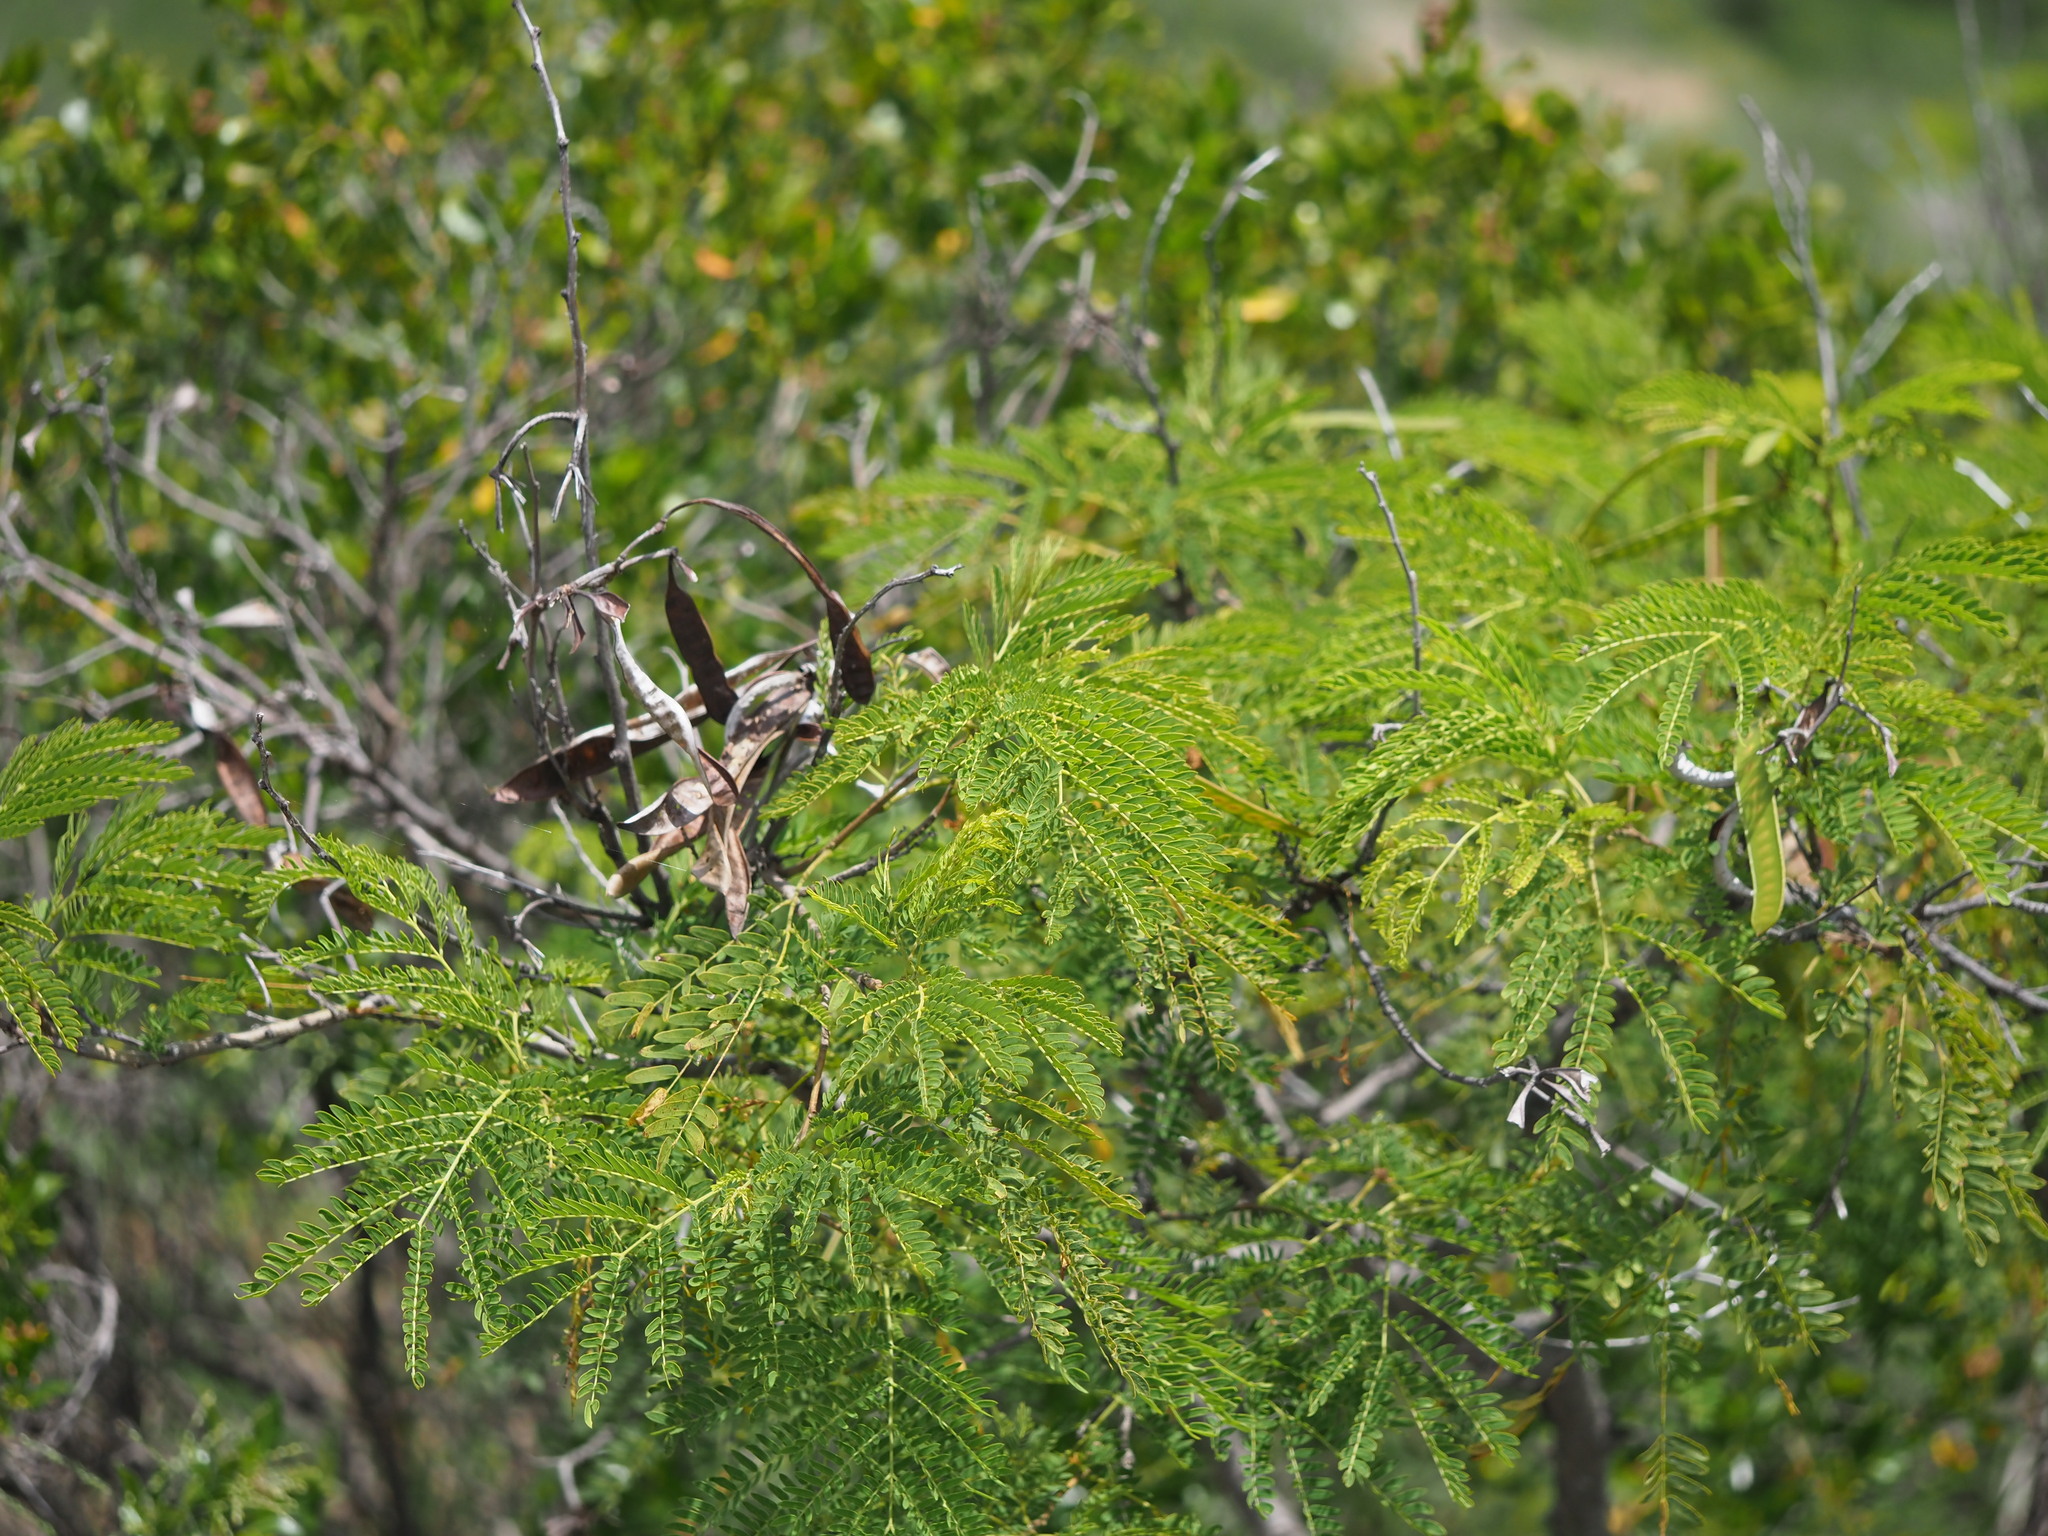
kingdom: Plantae
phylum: Tracheophyta
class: Magnoliopsida
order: Fabales
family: Fabaceae
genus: Leucaena
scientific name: Leucaena leucocephala
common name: White leadtree
